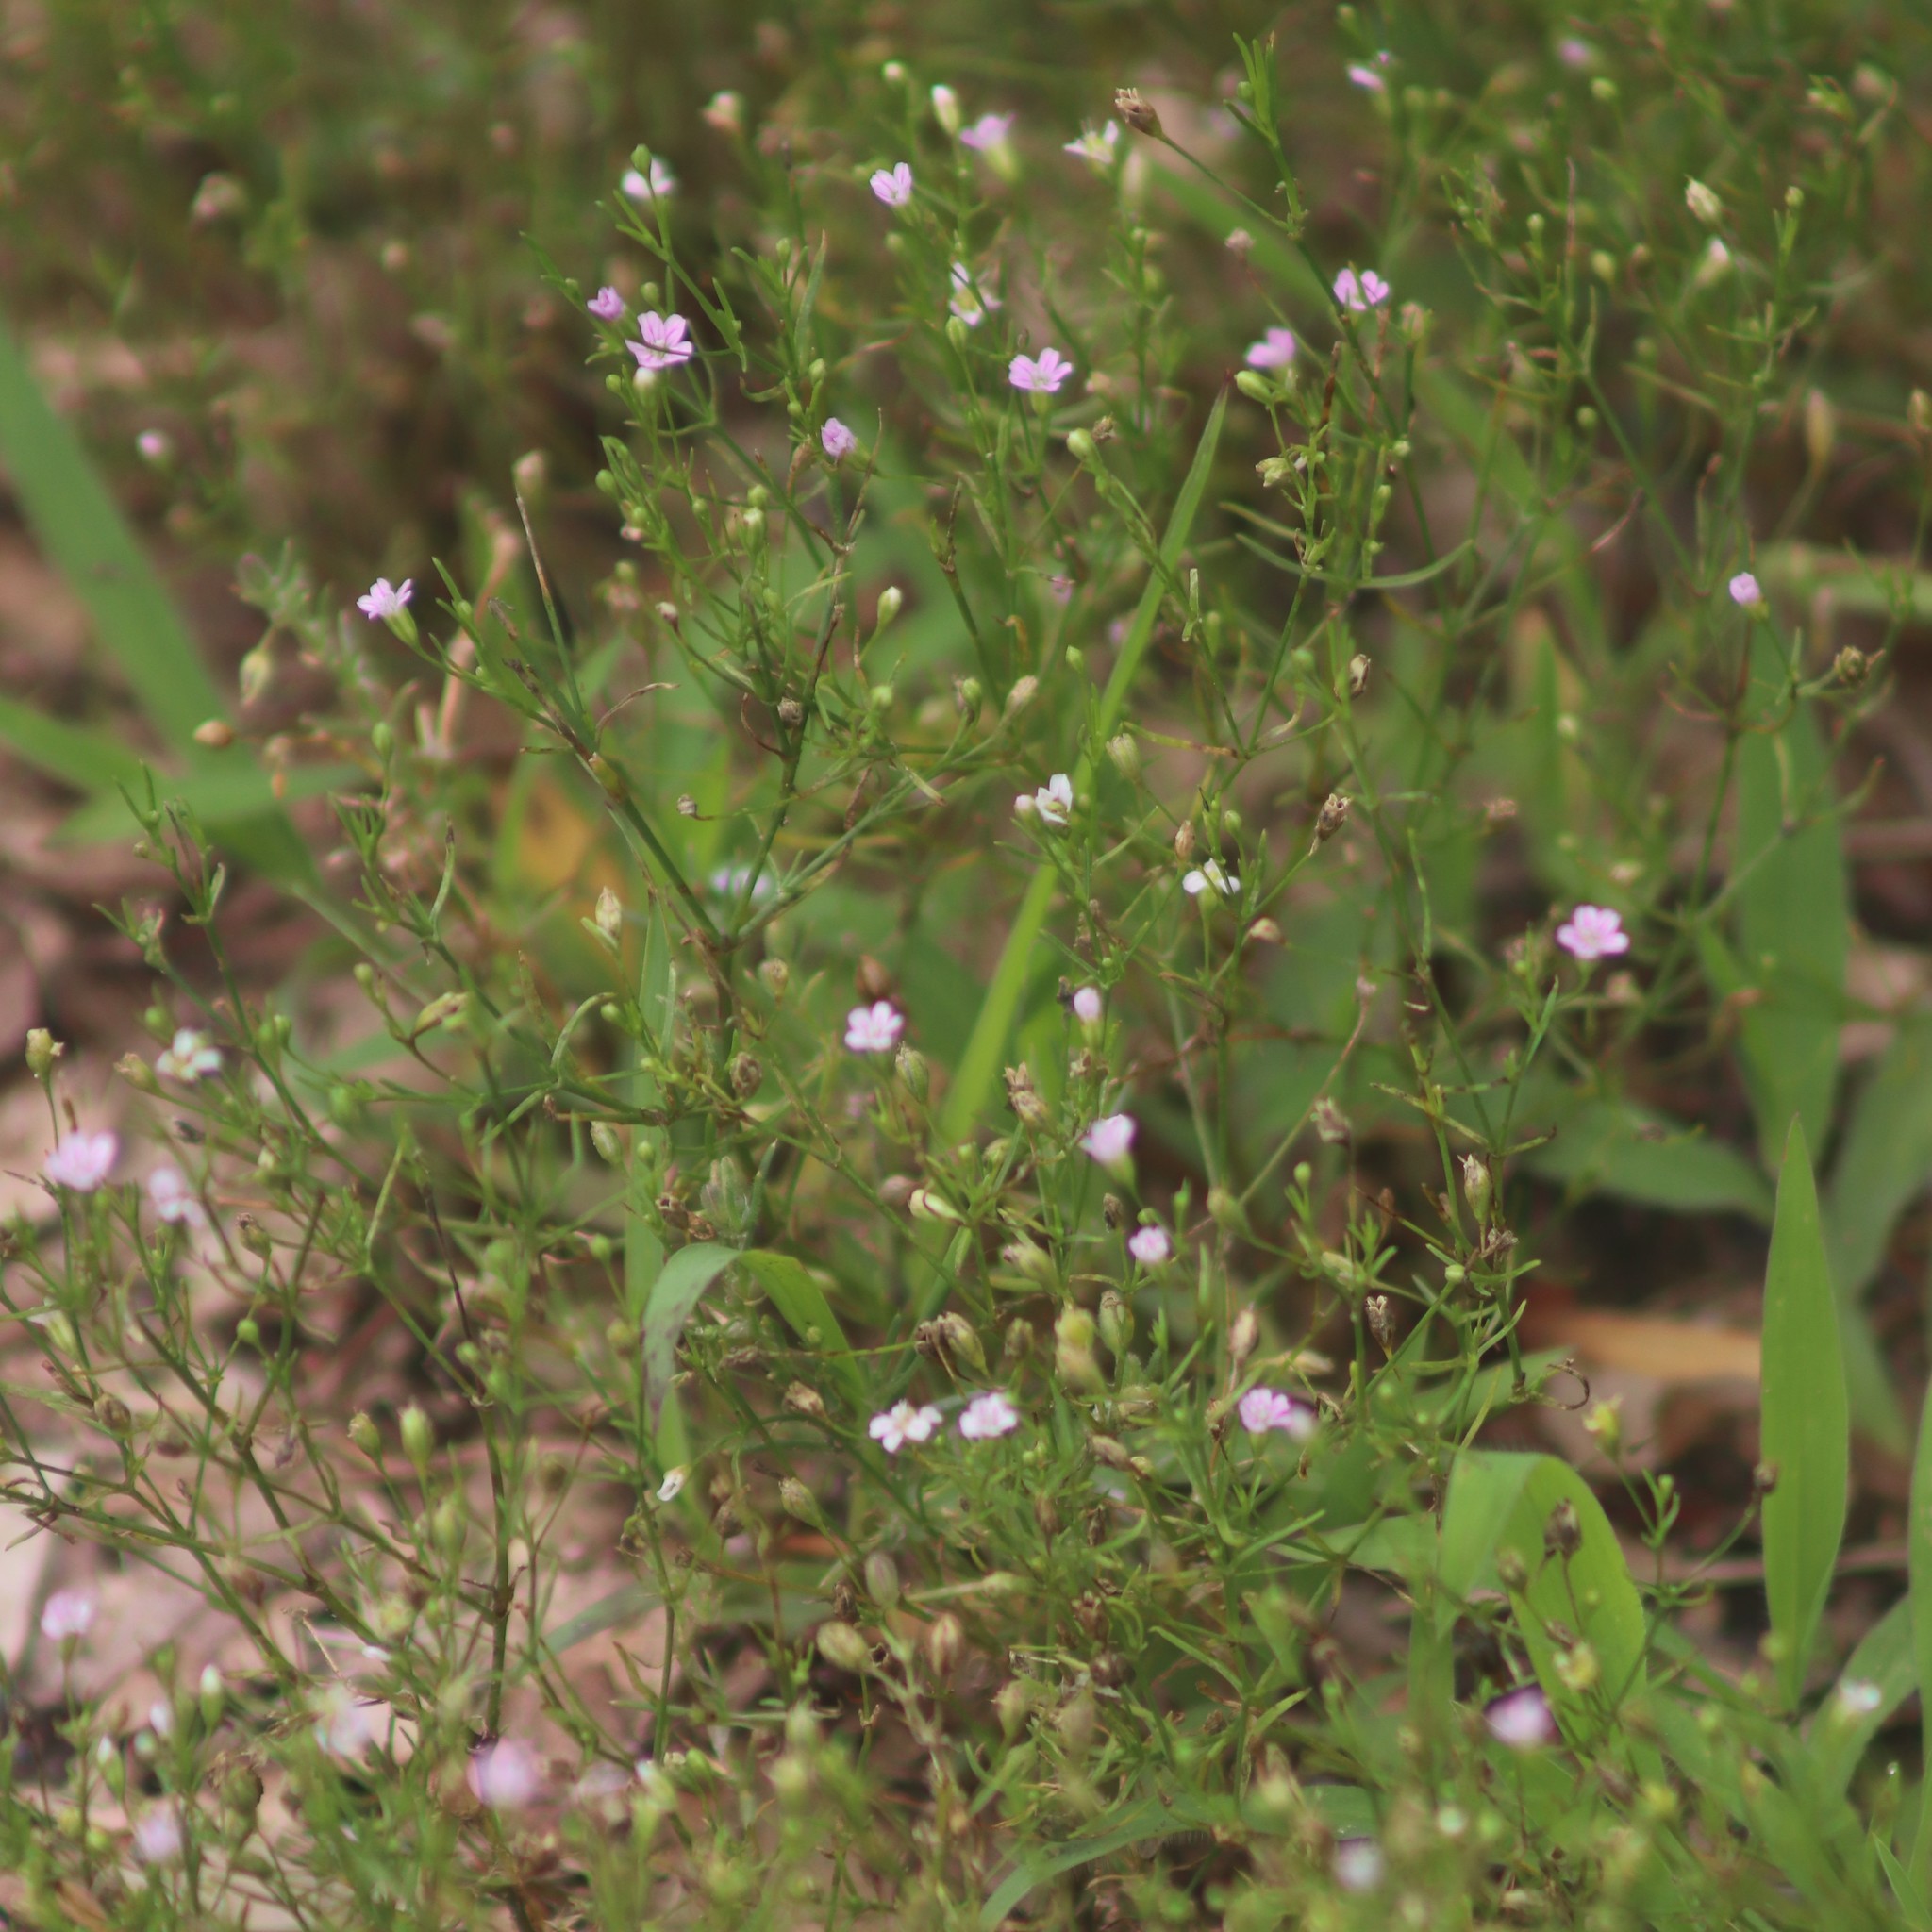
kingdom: Plantae
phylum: Tracheophyta
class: Magnoliopsida
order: Caryophyllales
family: Caryophyllaceae
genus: Psammophiliella
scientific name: Psammophiliella muralis
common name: Cushion baby's-breath
